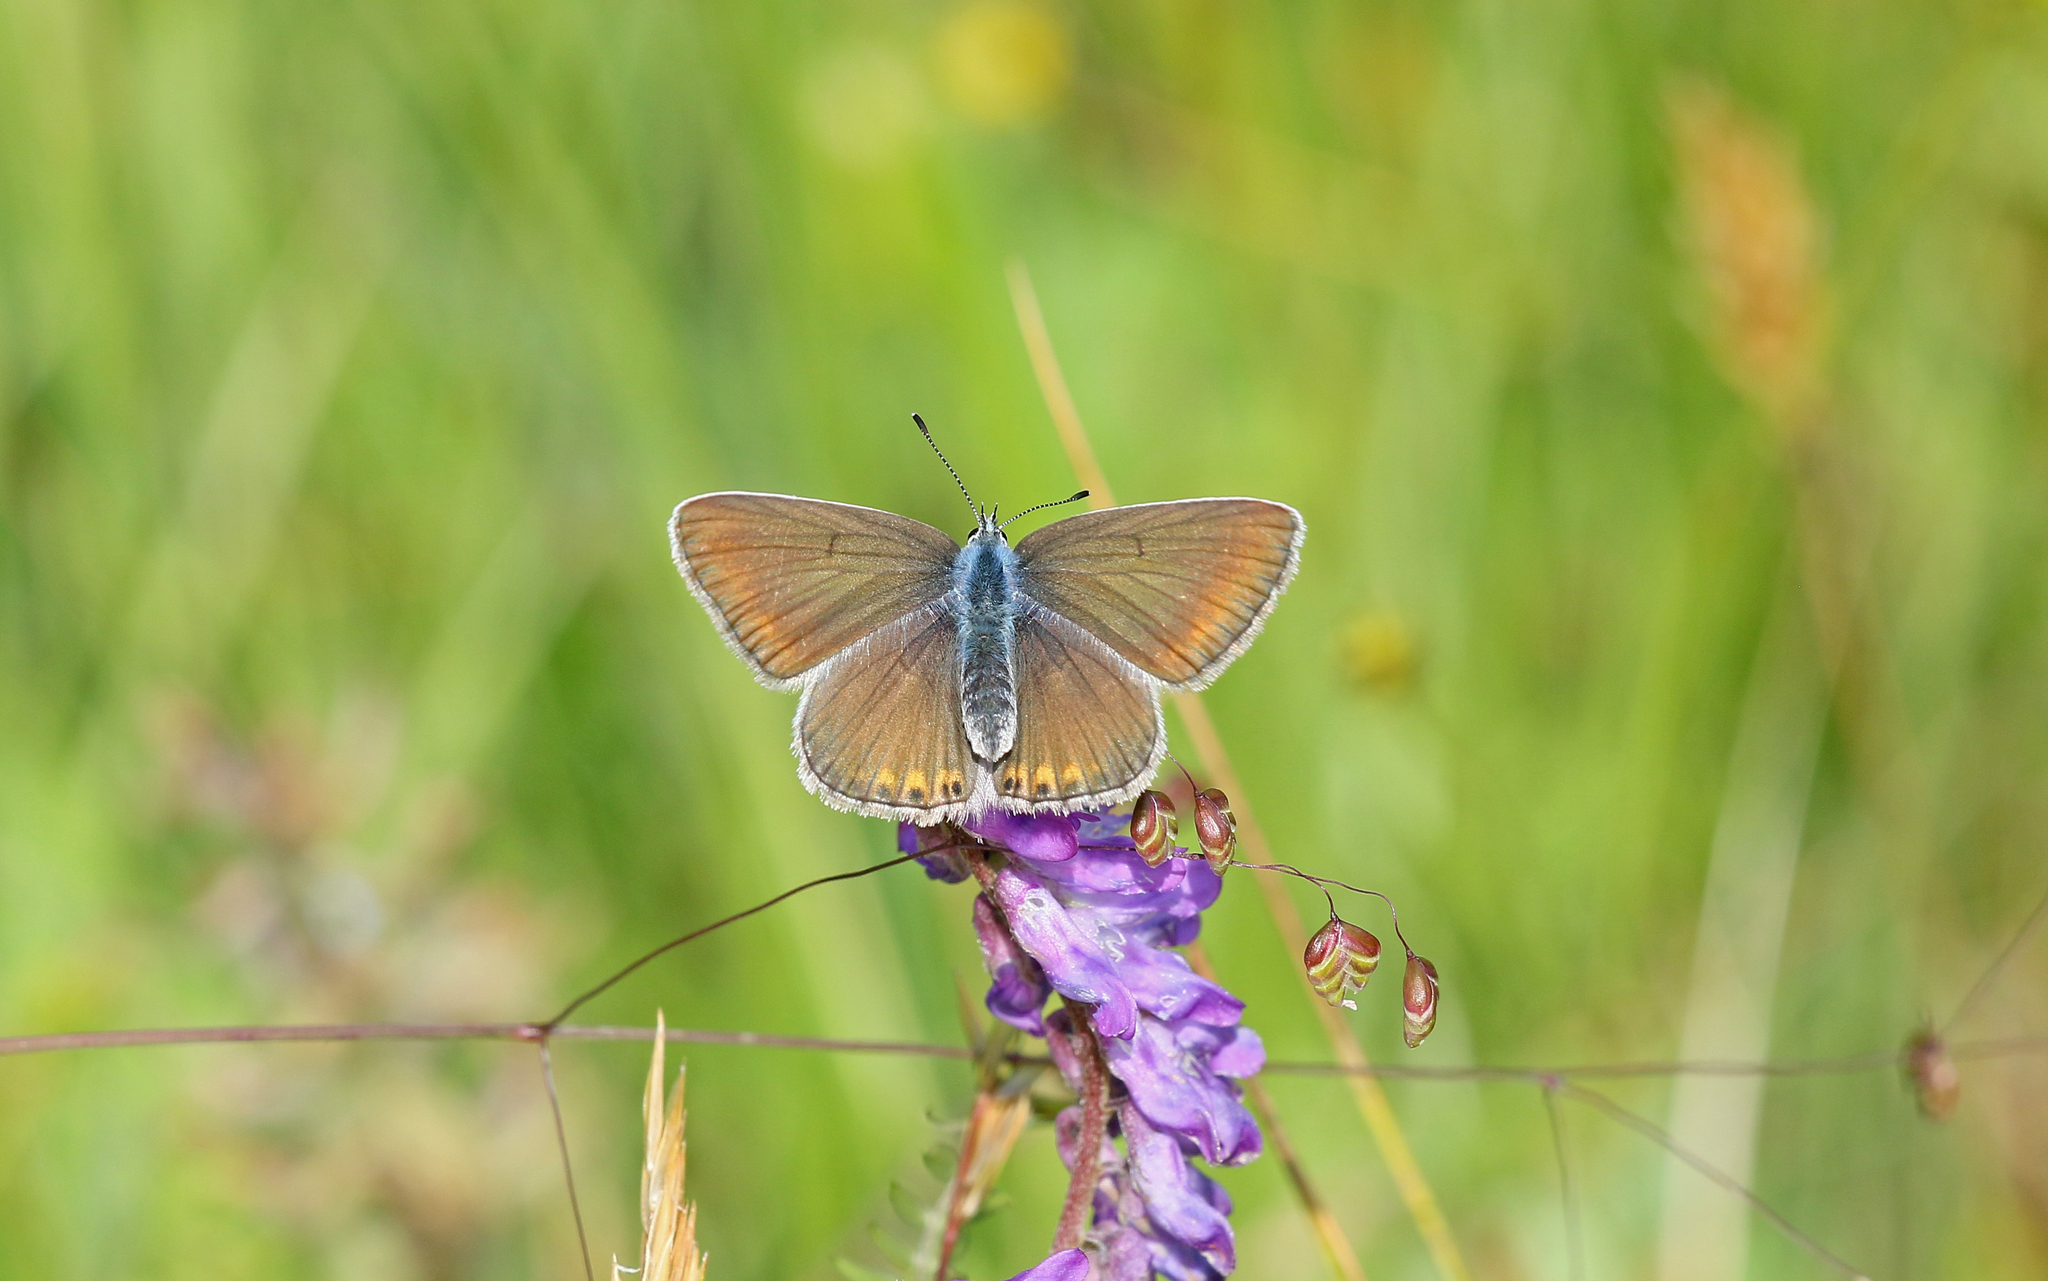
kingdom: Animalia
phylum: Arthropoda
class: Insecta
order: Lepidoptera
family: Lycaenidae
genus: Plebejus
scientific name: Plebejus amanda
